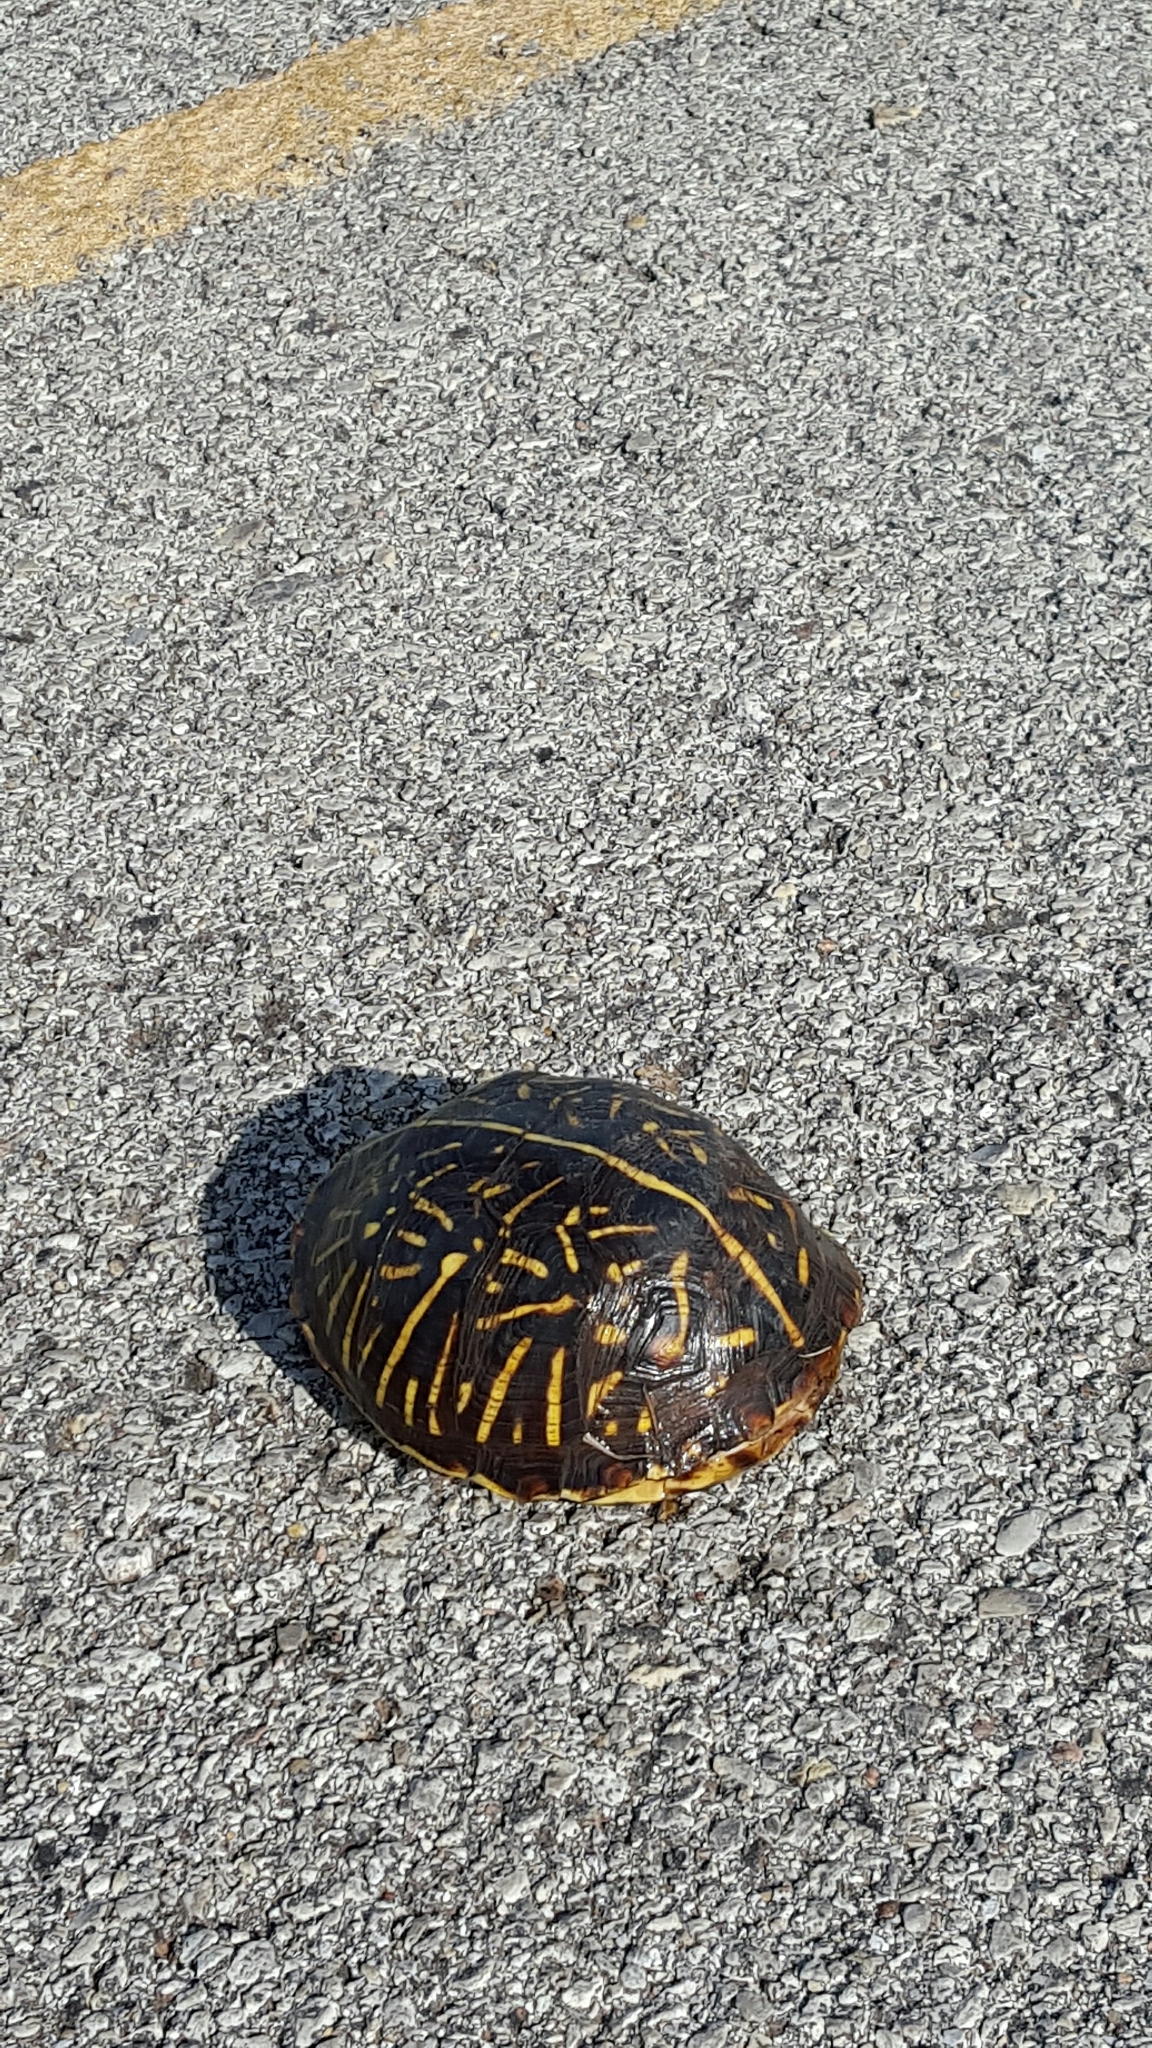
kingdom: Animalia
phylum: Chordata
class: Testudines
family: Emydidae
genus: Terrapene
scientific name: Terrapene ornata
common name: Western box turtle
